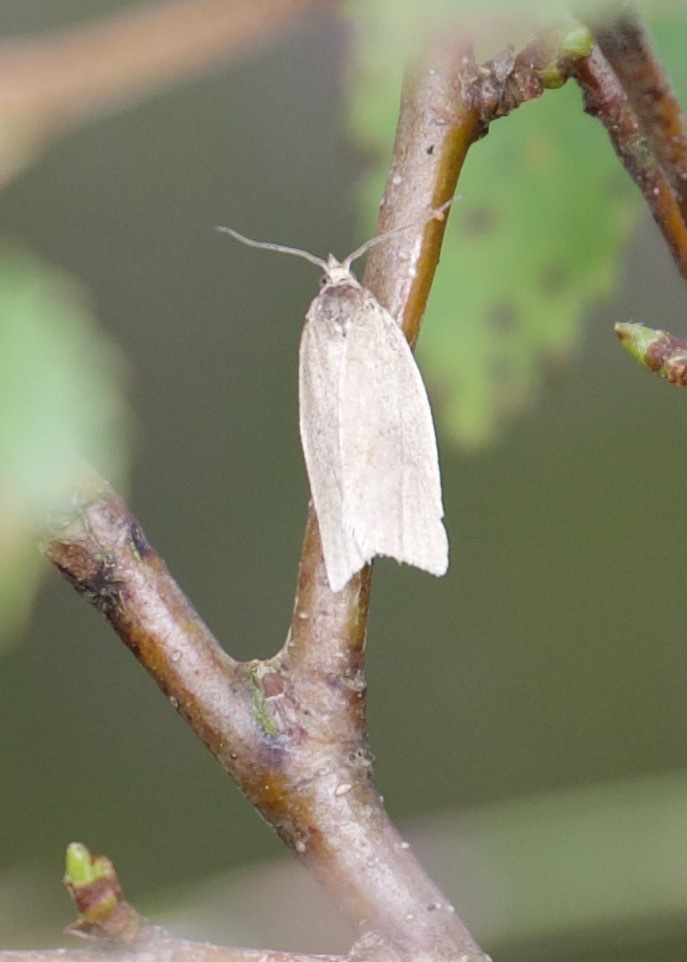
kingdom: Animalia
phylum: Arthropoda
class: Insecta
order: Lepidoptera
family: Tortricidae
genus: Aphelia
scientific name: Aphelia
